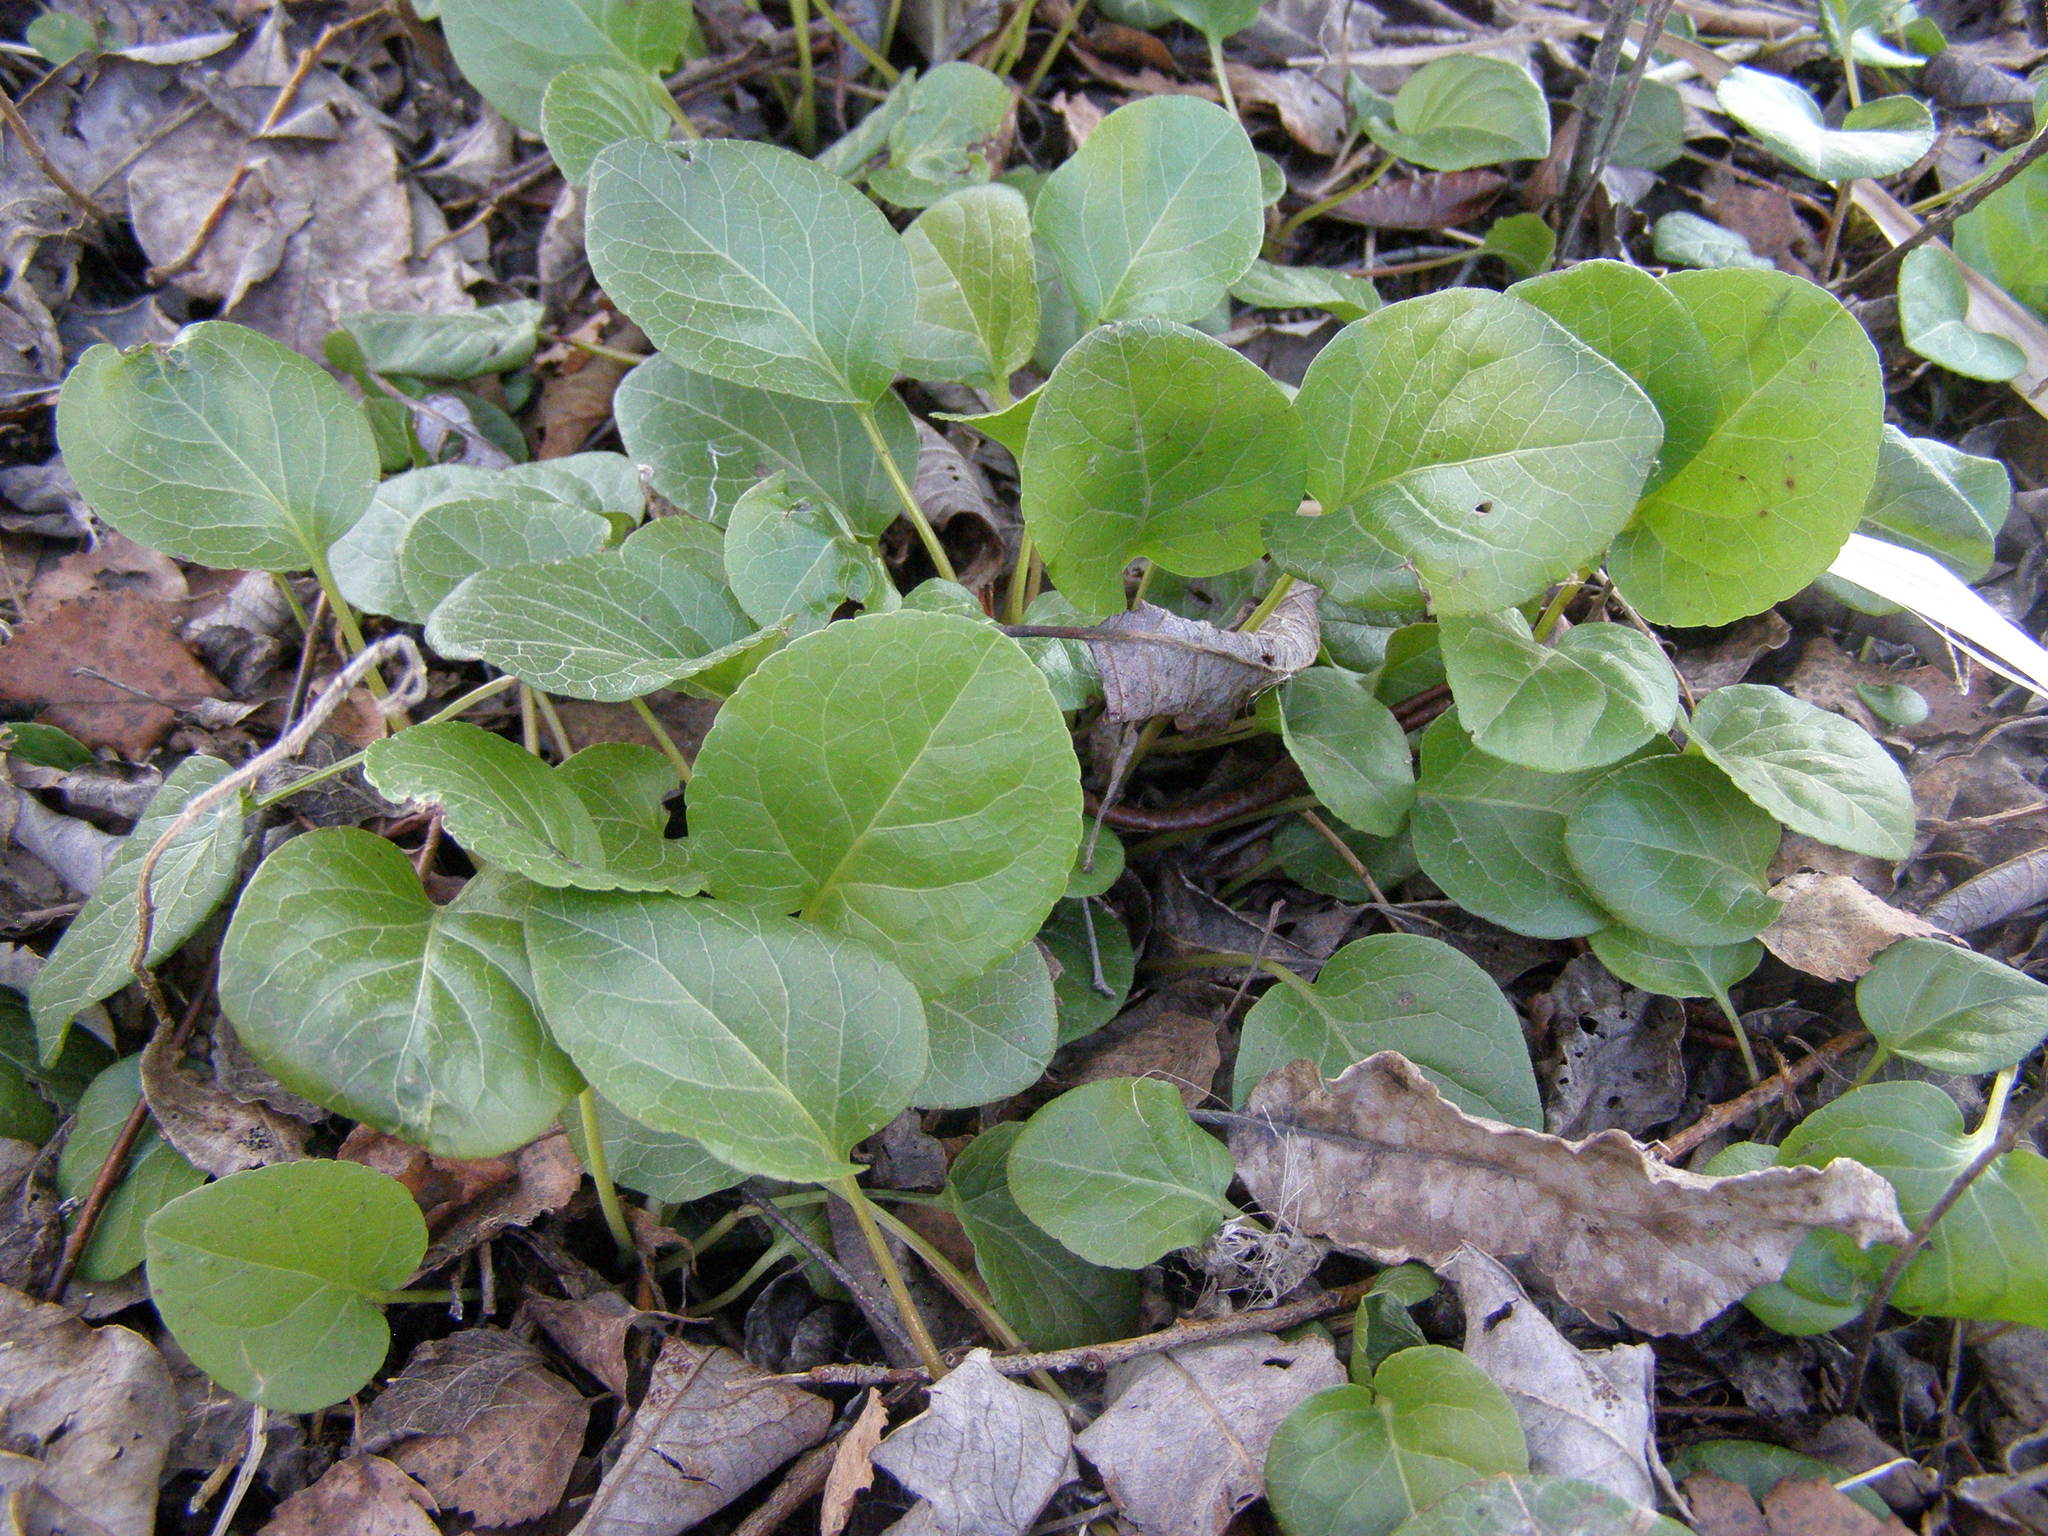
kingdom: Plantae
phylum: Tracheophyta
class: Magnoliopsida
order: Ericales
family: Ericaceae
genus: Pyrola
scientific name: Pyrola
